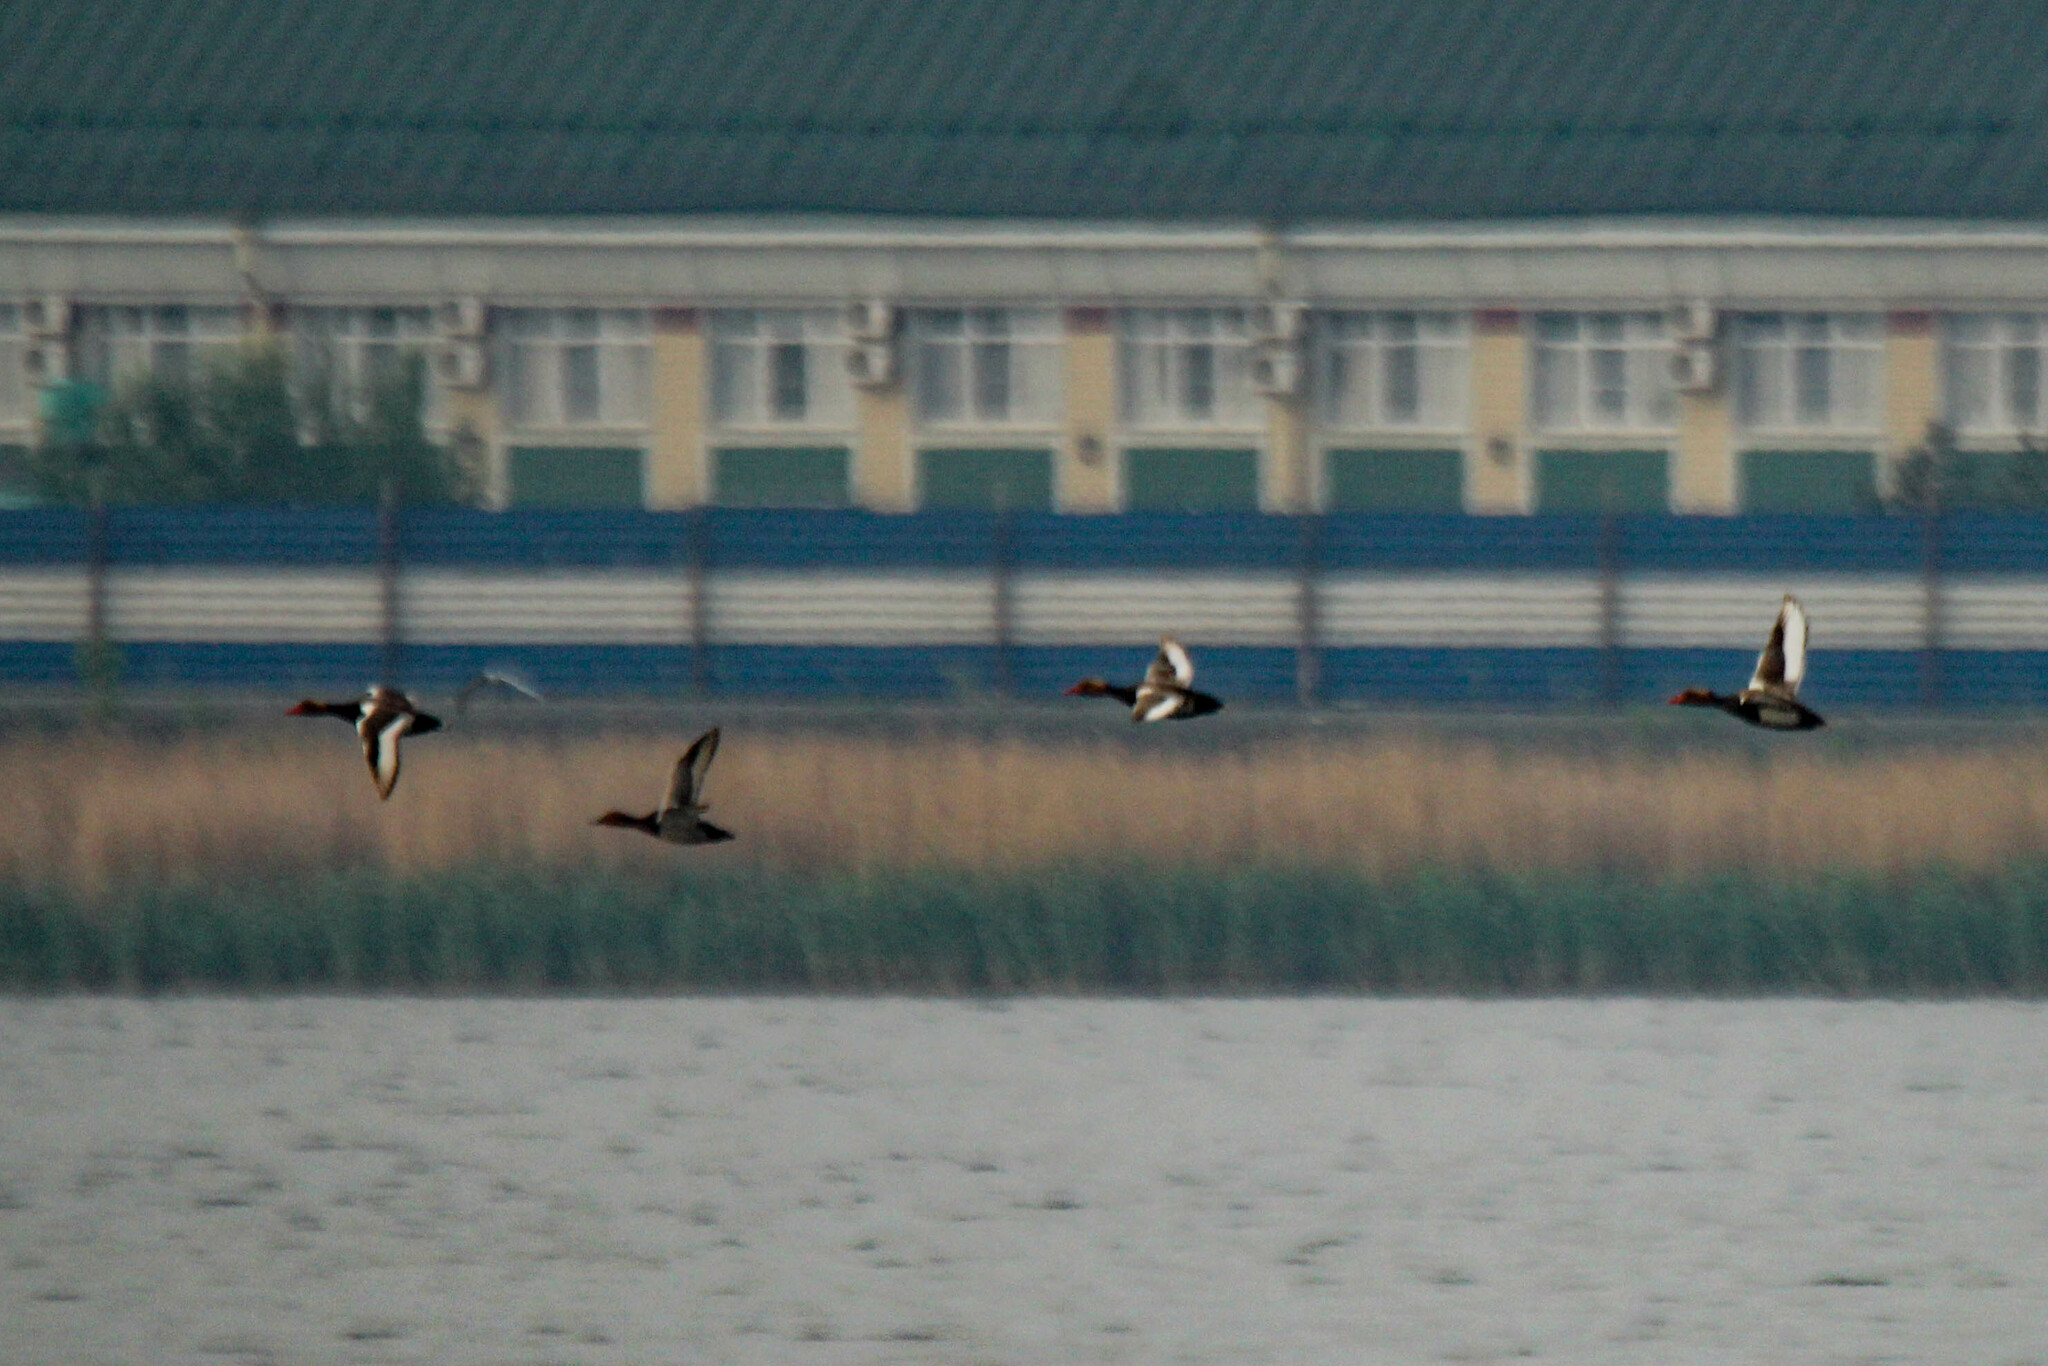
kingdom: Animalia
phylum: Chordata
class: Aves
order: Anseriformes
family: Anatidae
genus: Netta
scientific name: Netta rufina
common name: Red-crested pochard
